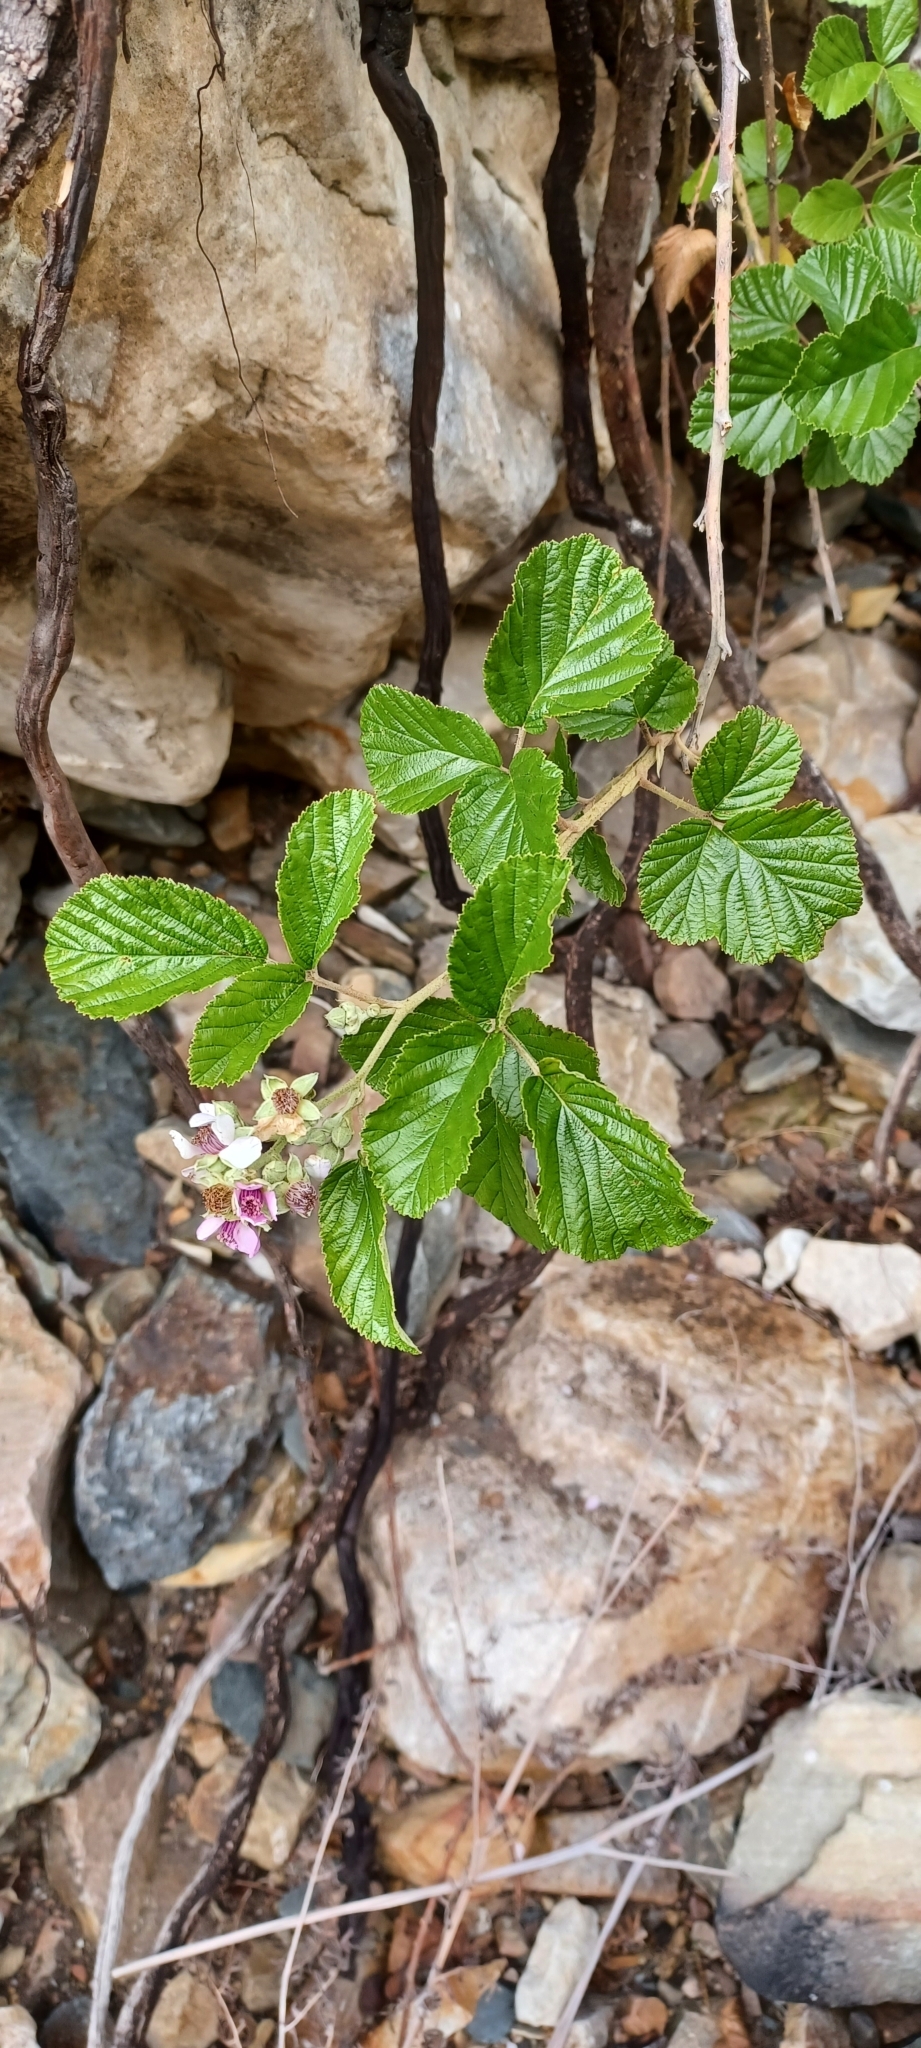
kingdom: Plantae
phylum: Tracheophyta
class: Magnoliopsida
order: Rosales
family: Rosaceae
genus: Rubus
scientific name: Rubus rigidus
